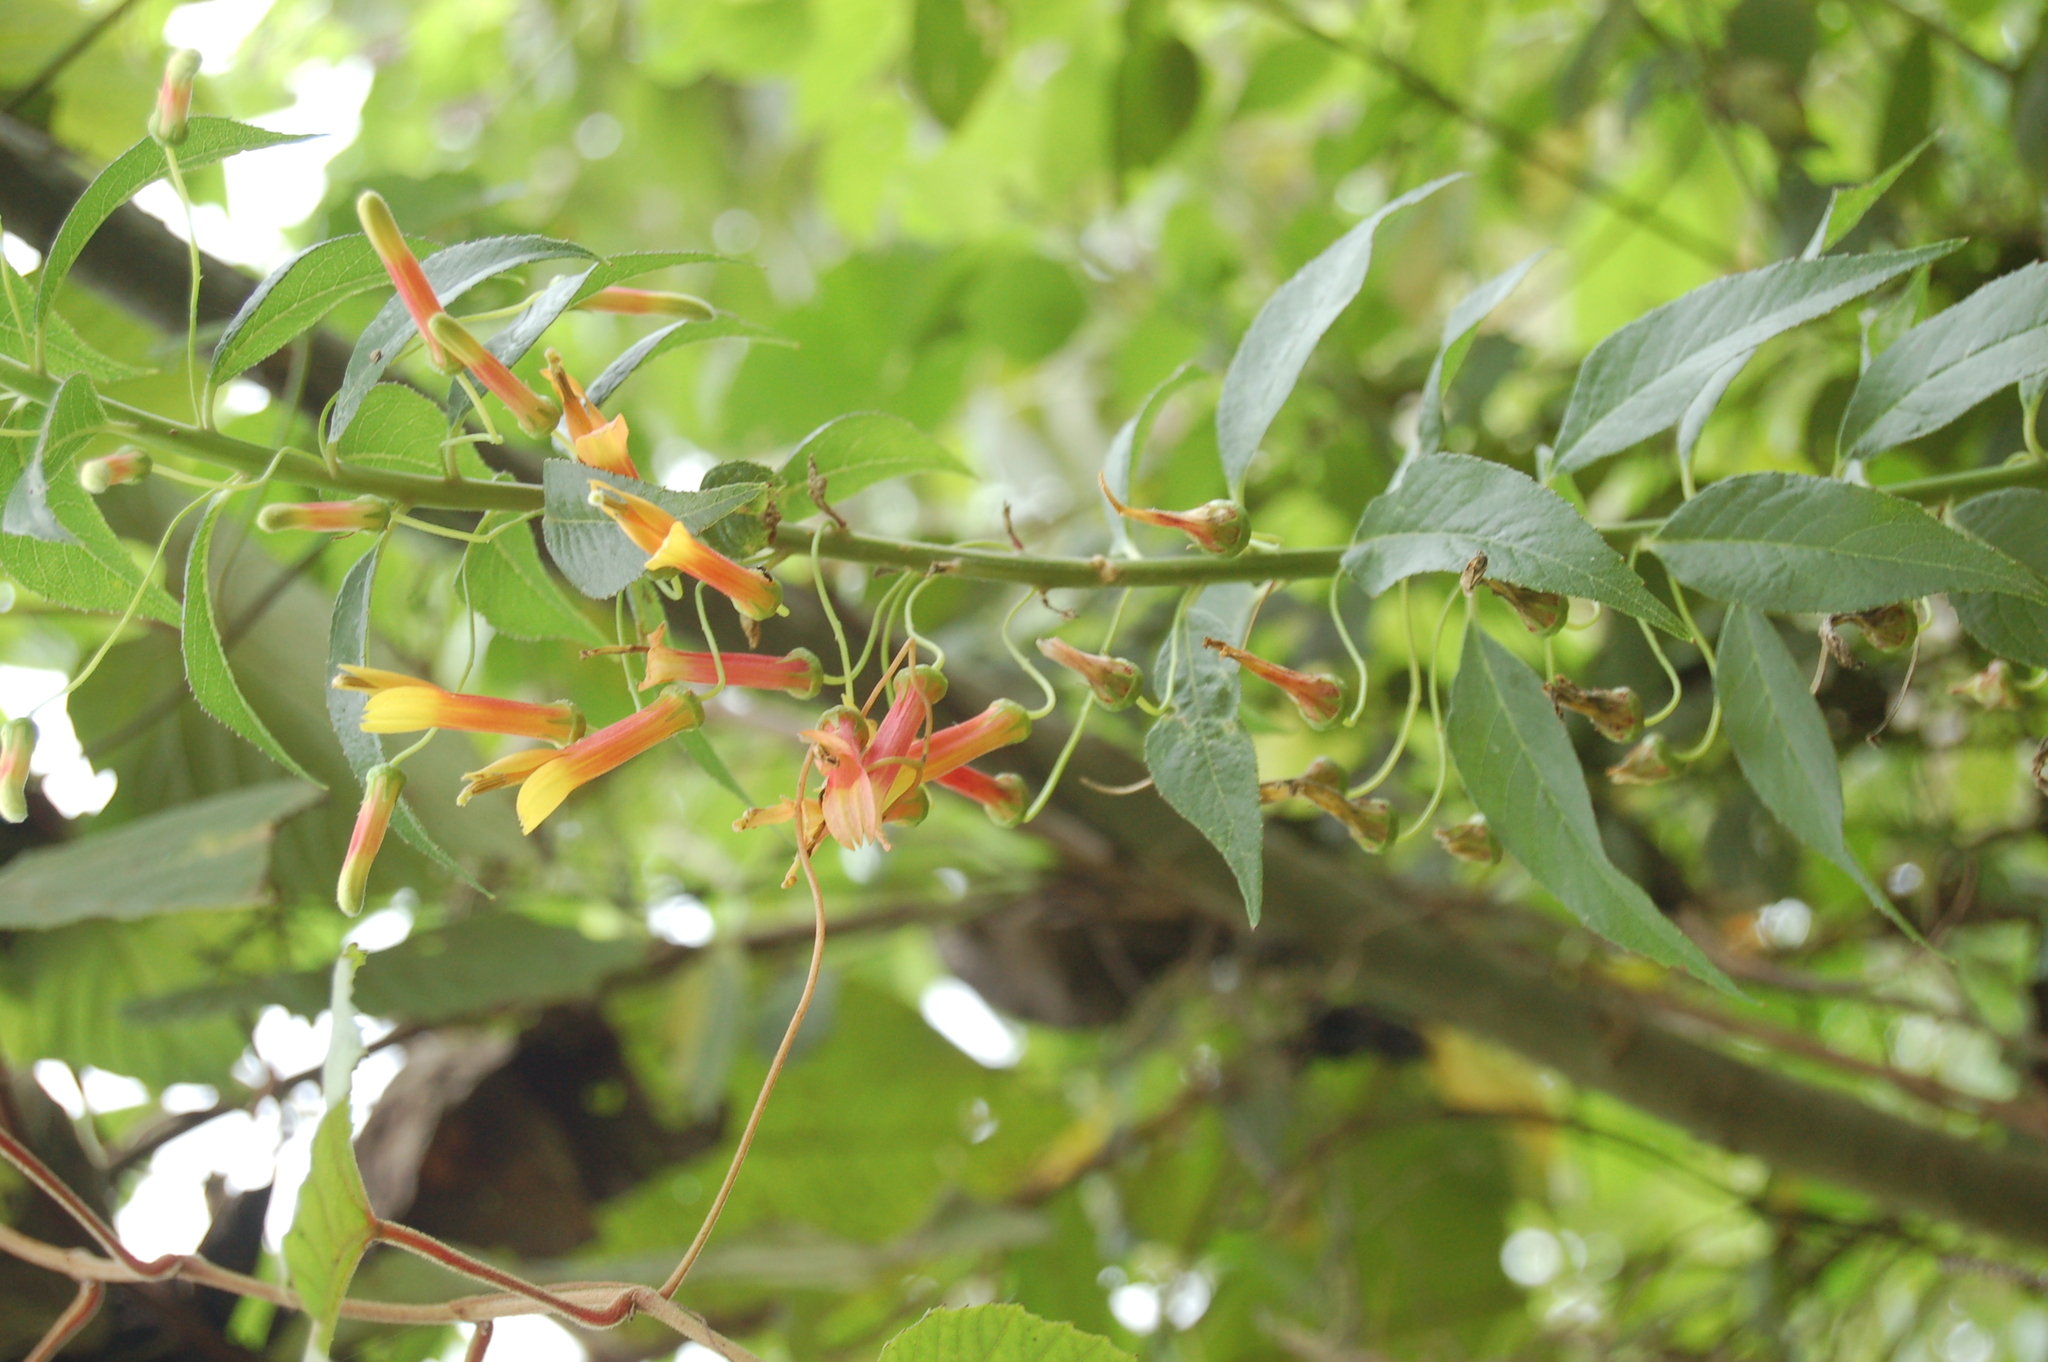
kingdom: Plantae
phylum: Tracheophyta
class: Magnoliopsida
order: Asterales
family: Campanulaceae
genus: Lobelia
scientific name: Lobelia laxiflora
